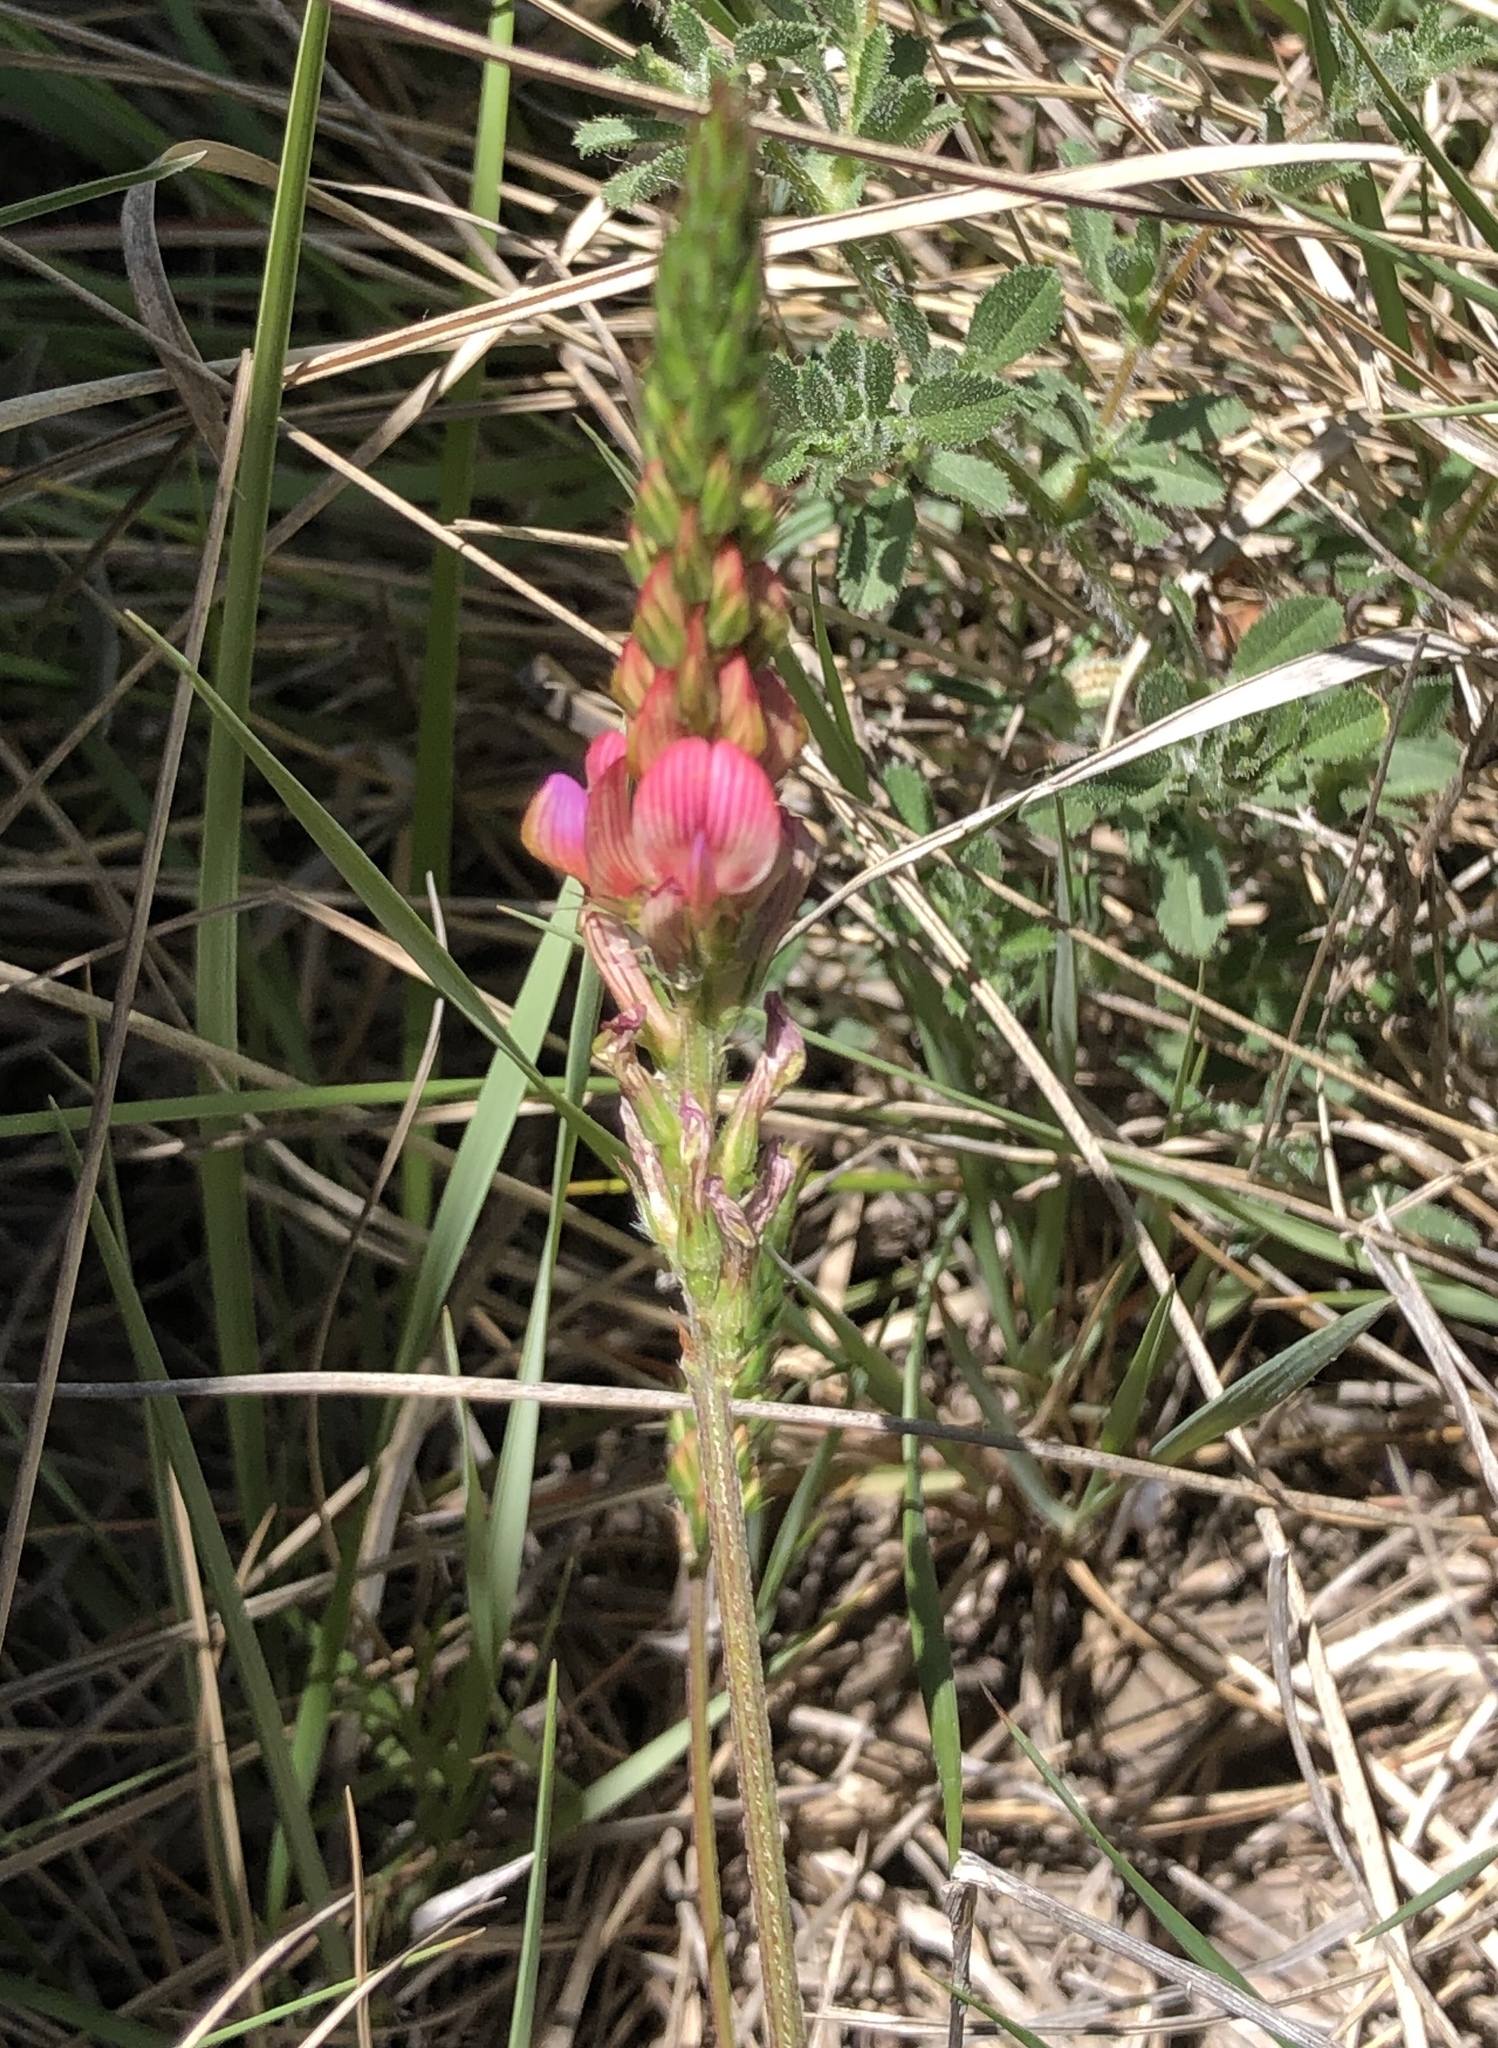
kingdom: Plantae
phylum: Tracheophyta
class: Magnoliopsida
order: Fabales
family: Fabaceae
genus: Onobrychis
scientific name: Onobrychis viciifolia
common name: Sainfoin
